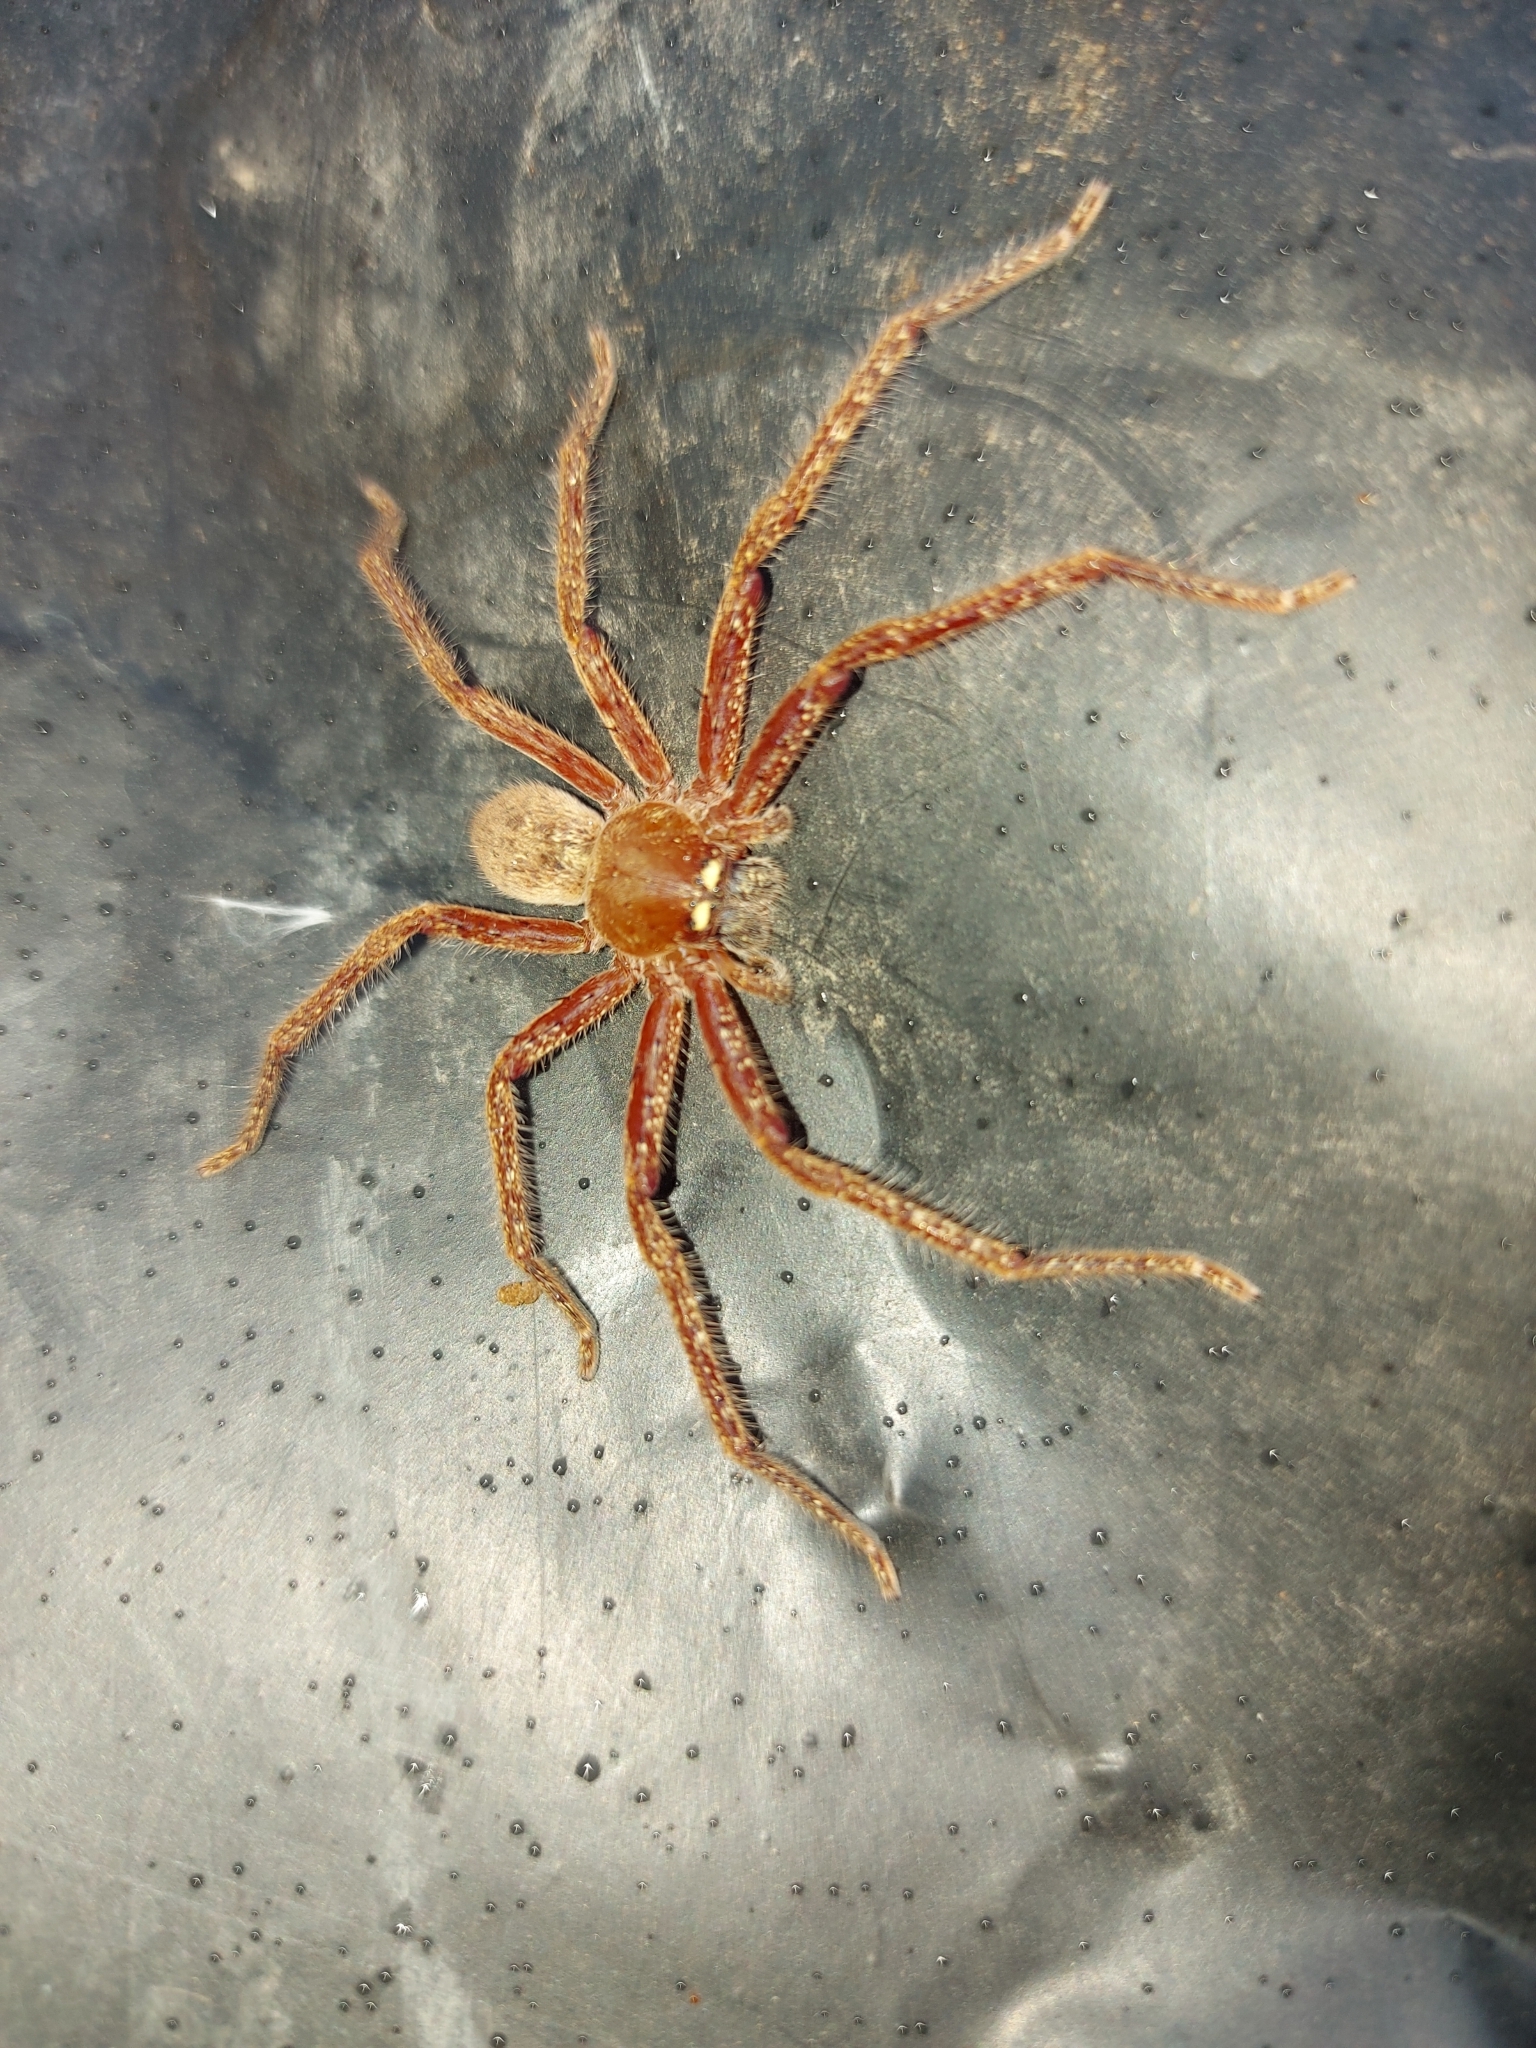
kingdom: Animalia
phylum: Arthropoda
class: Arachnida
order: Araneae
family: Sparassidae
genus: Neosparassus
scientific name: Neosparassus diana
